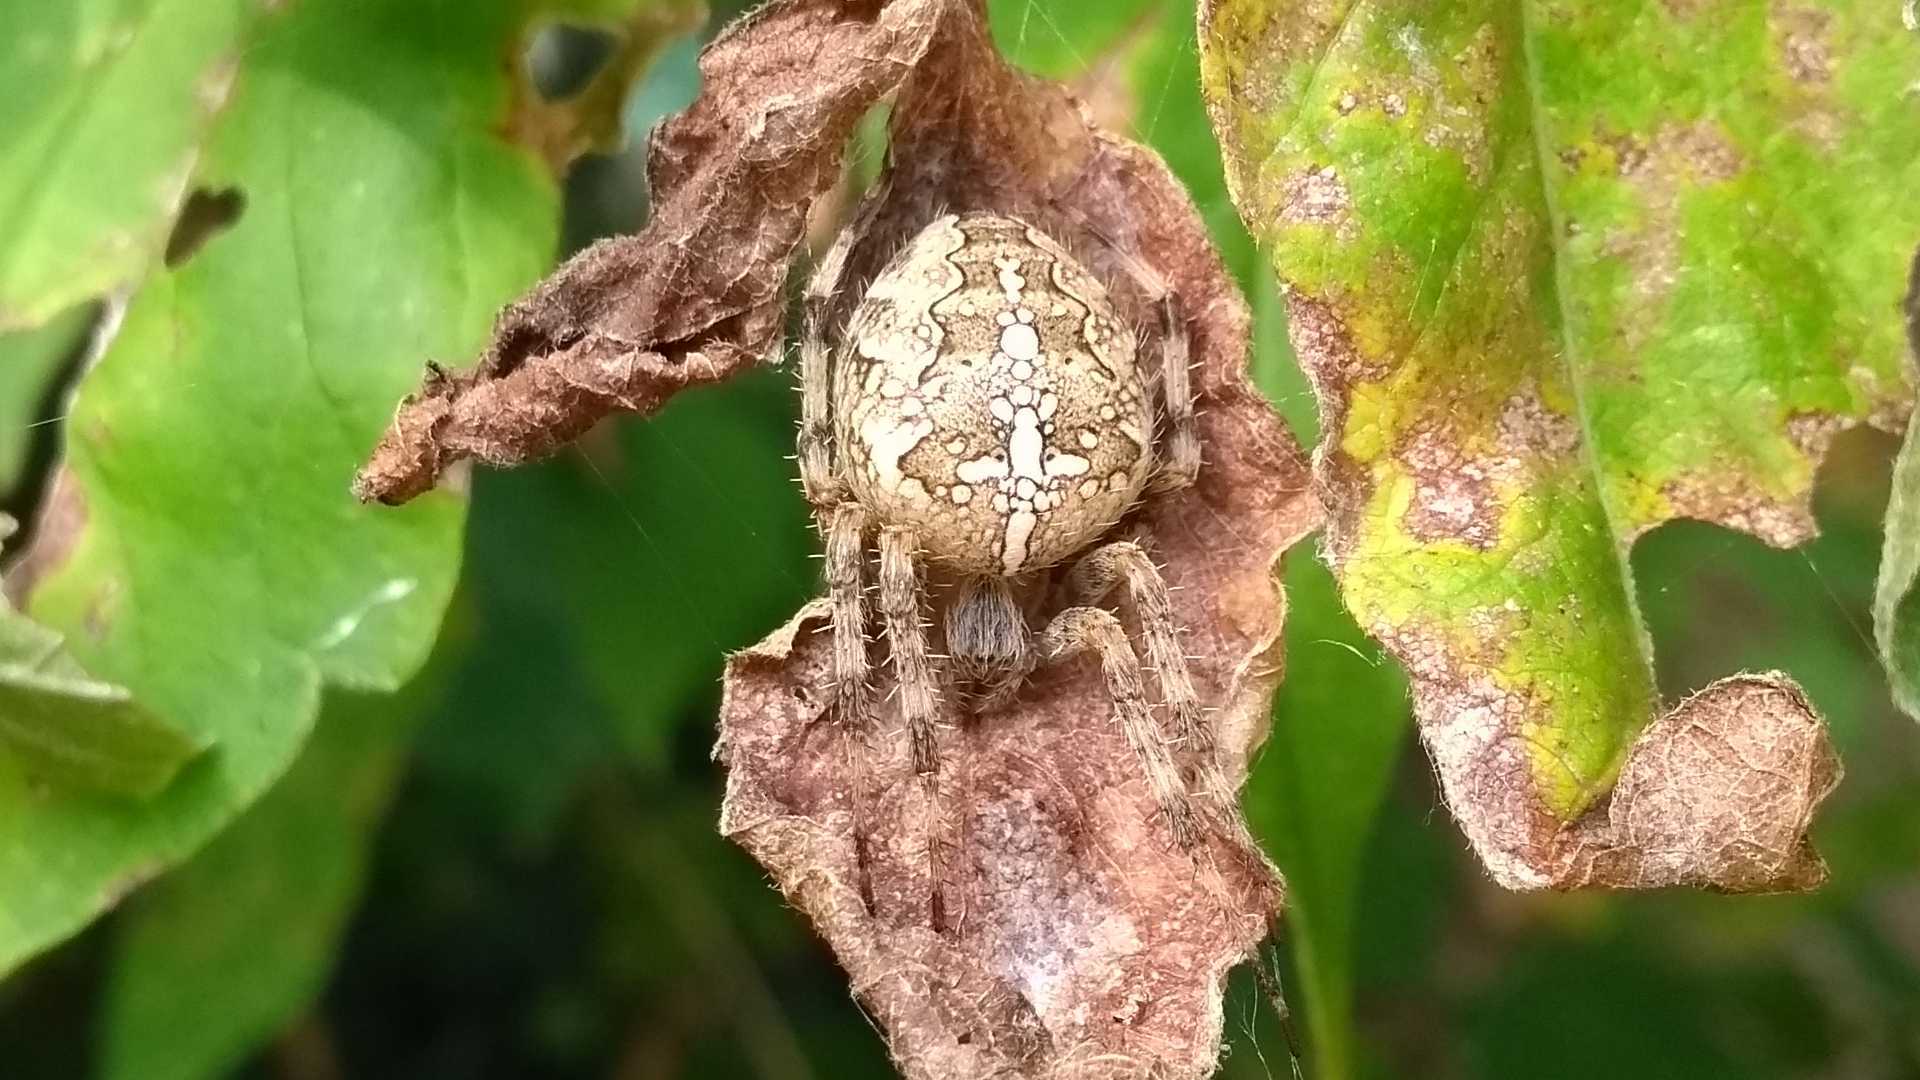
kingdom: Animalia
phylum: Arthropoda
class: Arachnida
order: Araneae
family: Araneidae
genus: Araneus
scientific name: Araneus diadematus
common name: Cross orbweaver
